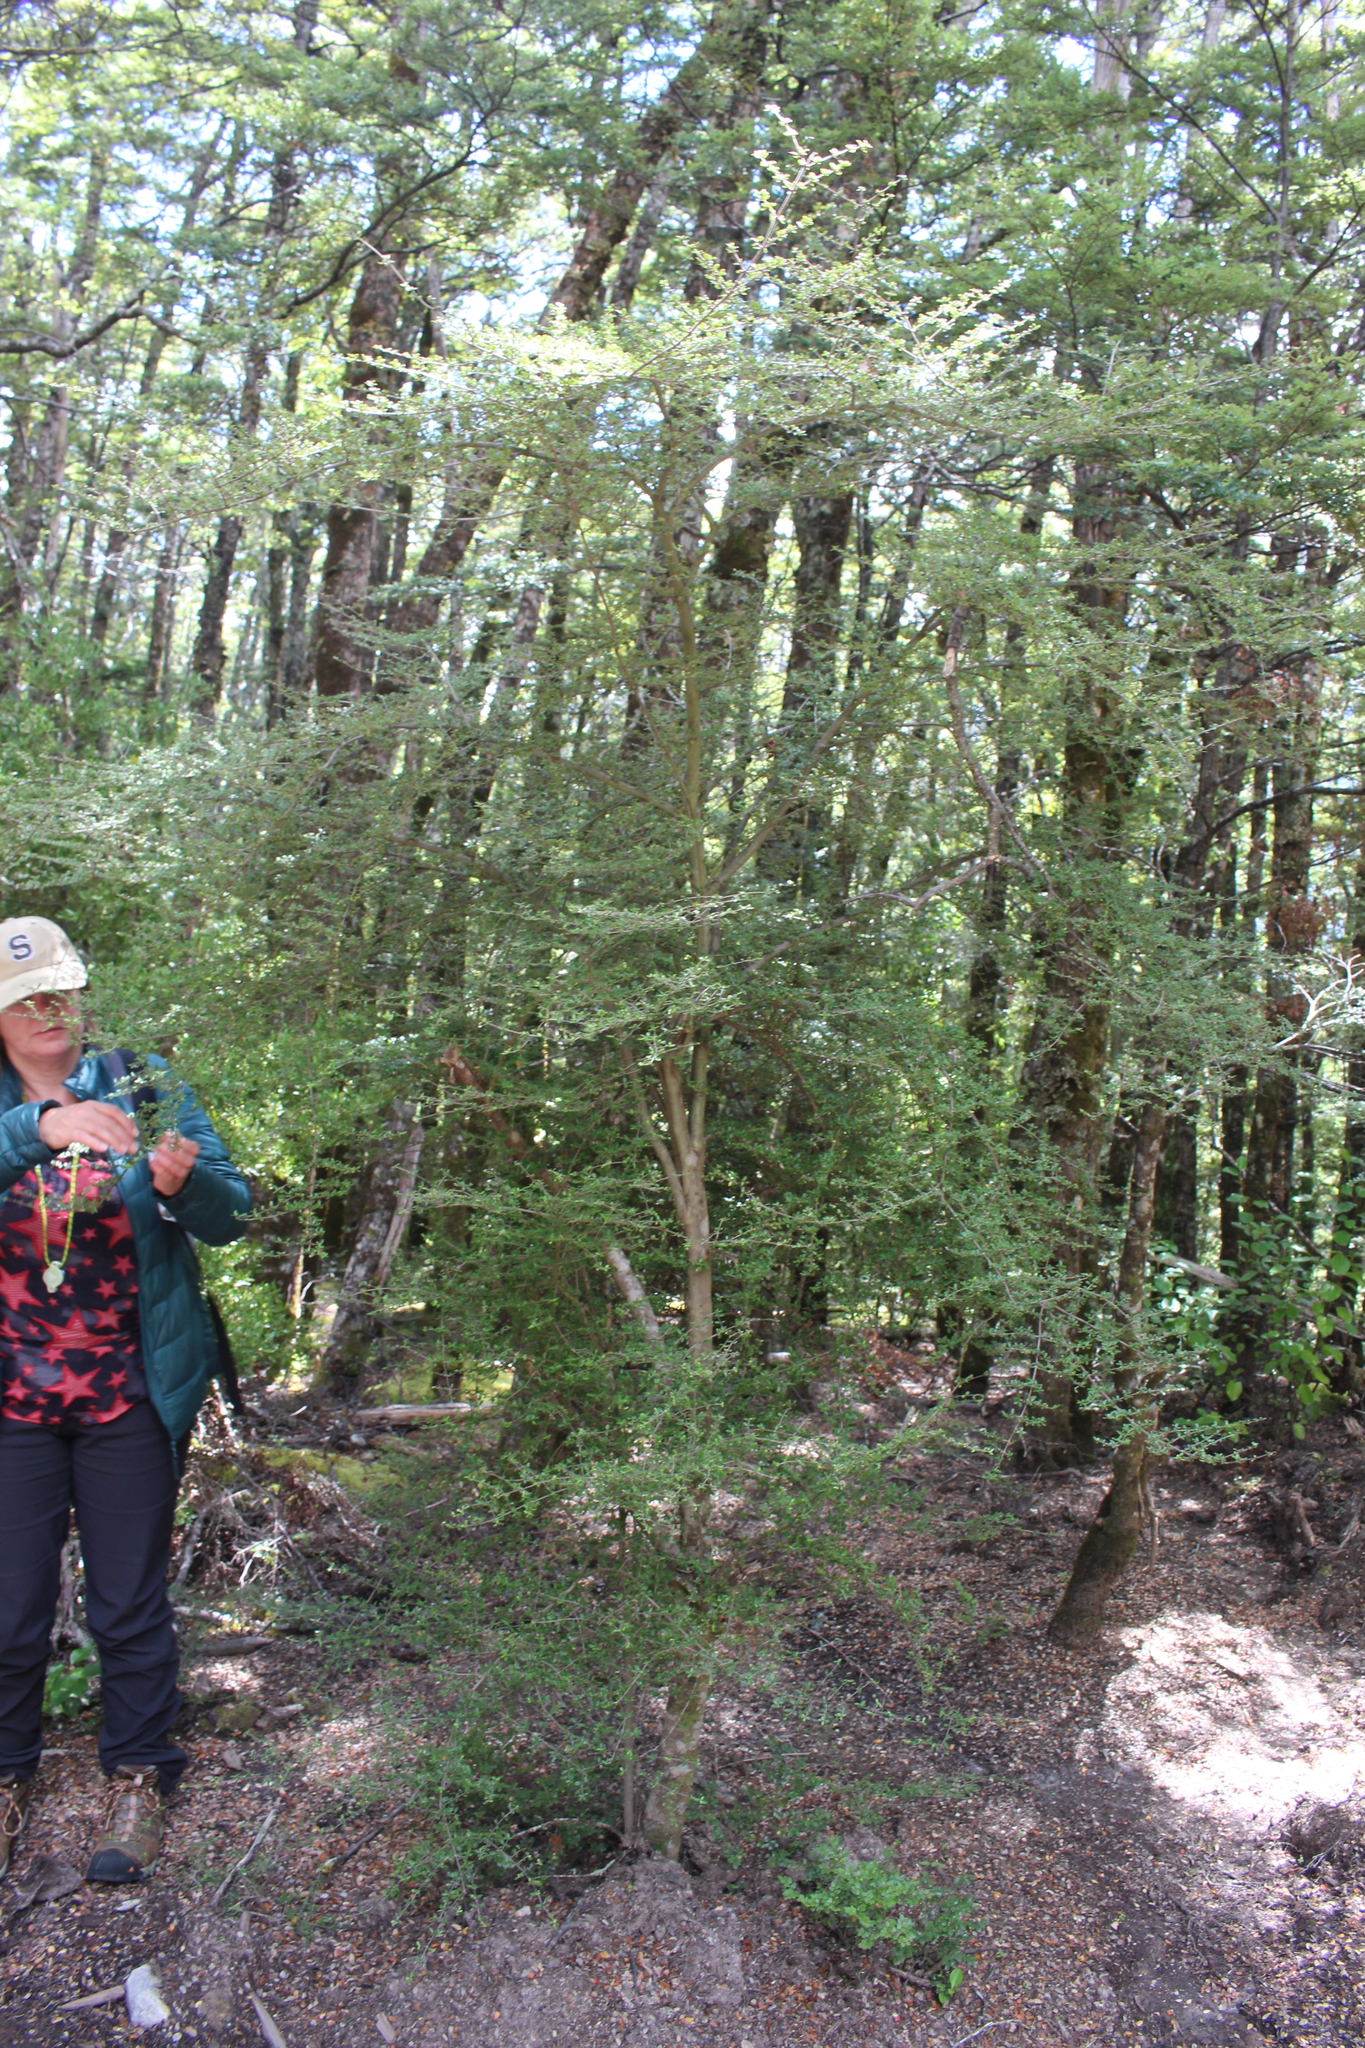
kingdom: Plantae
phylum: Tracheophyta
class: Magnoliopsida
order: Gentianales
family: Rubiaceae
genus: Coprosma
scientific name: Coprosma dumosa
